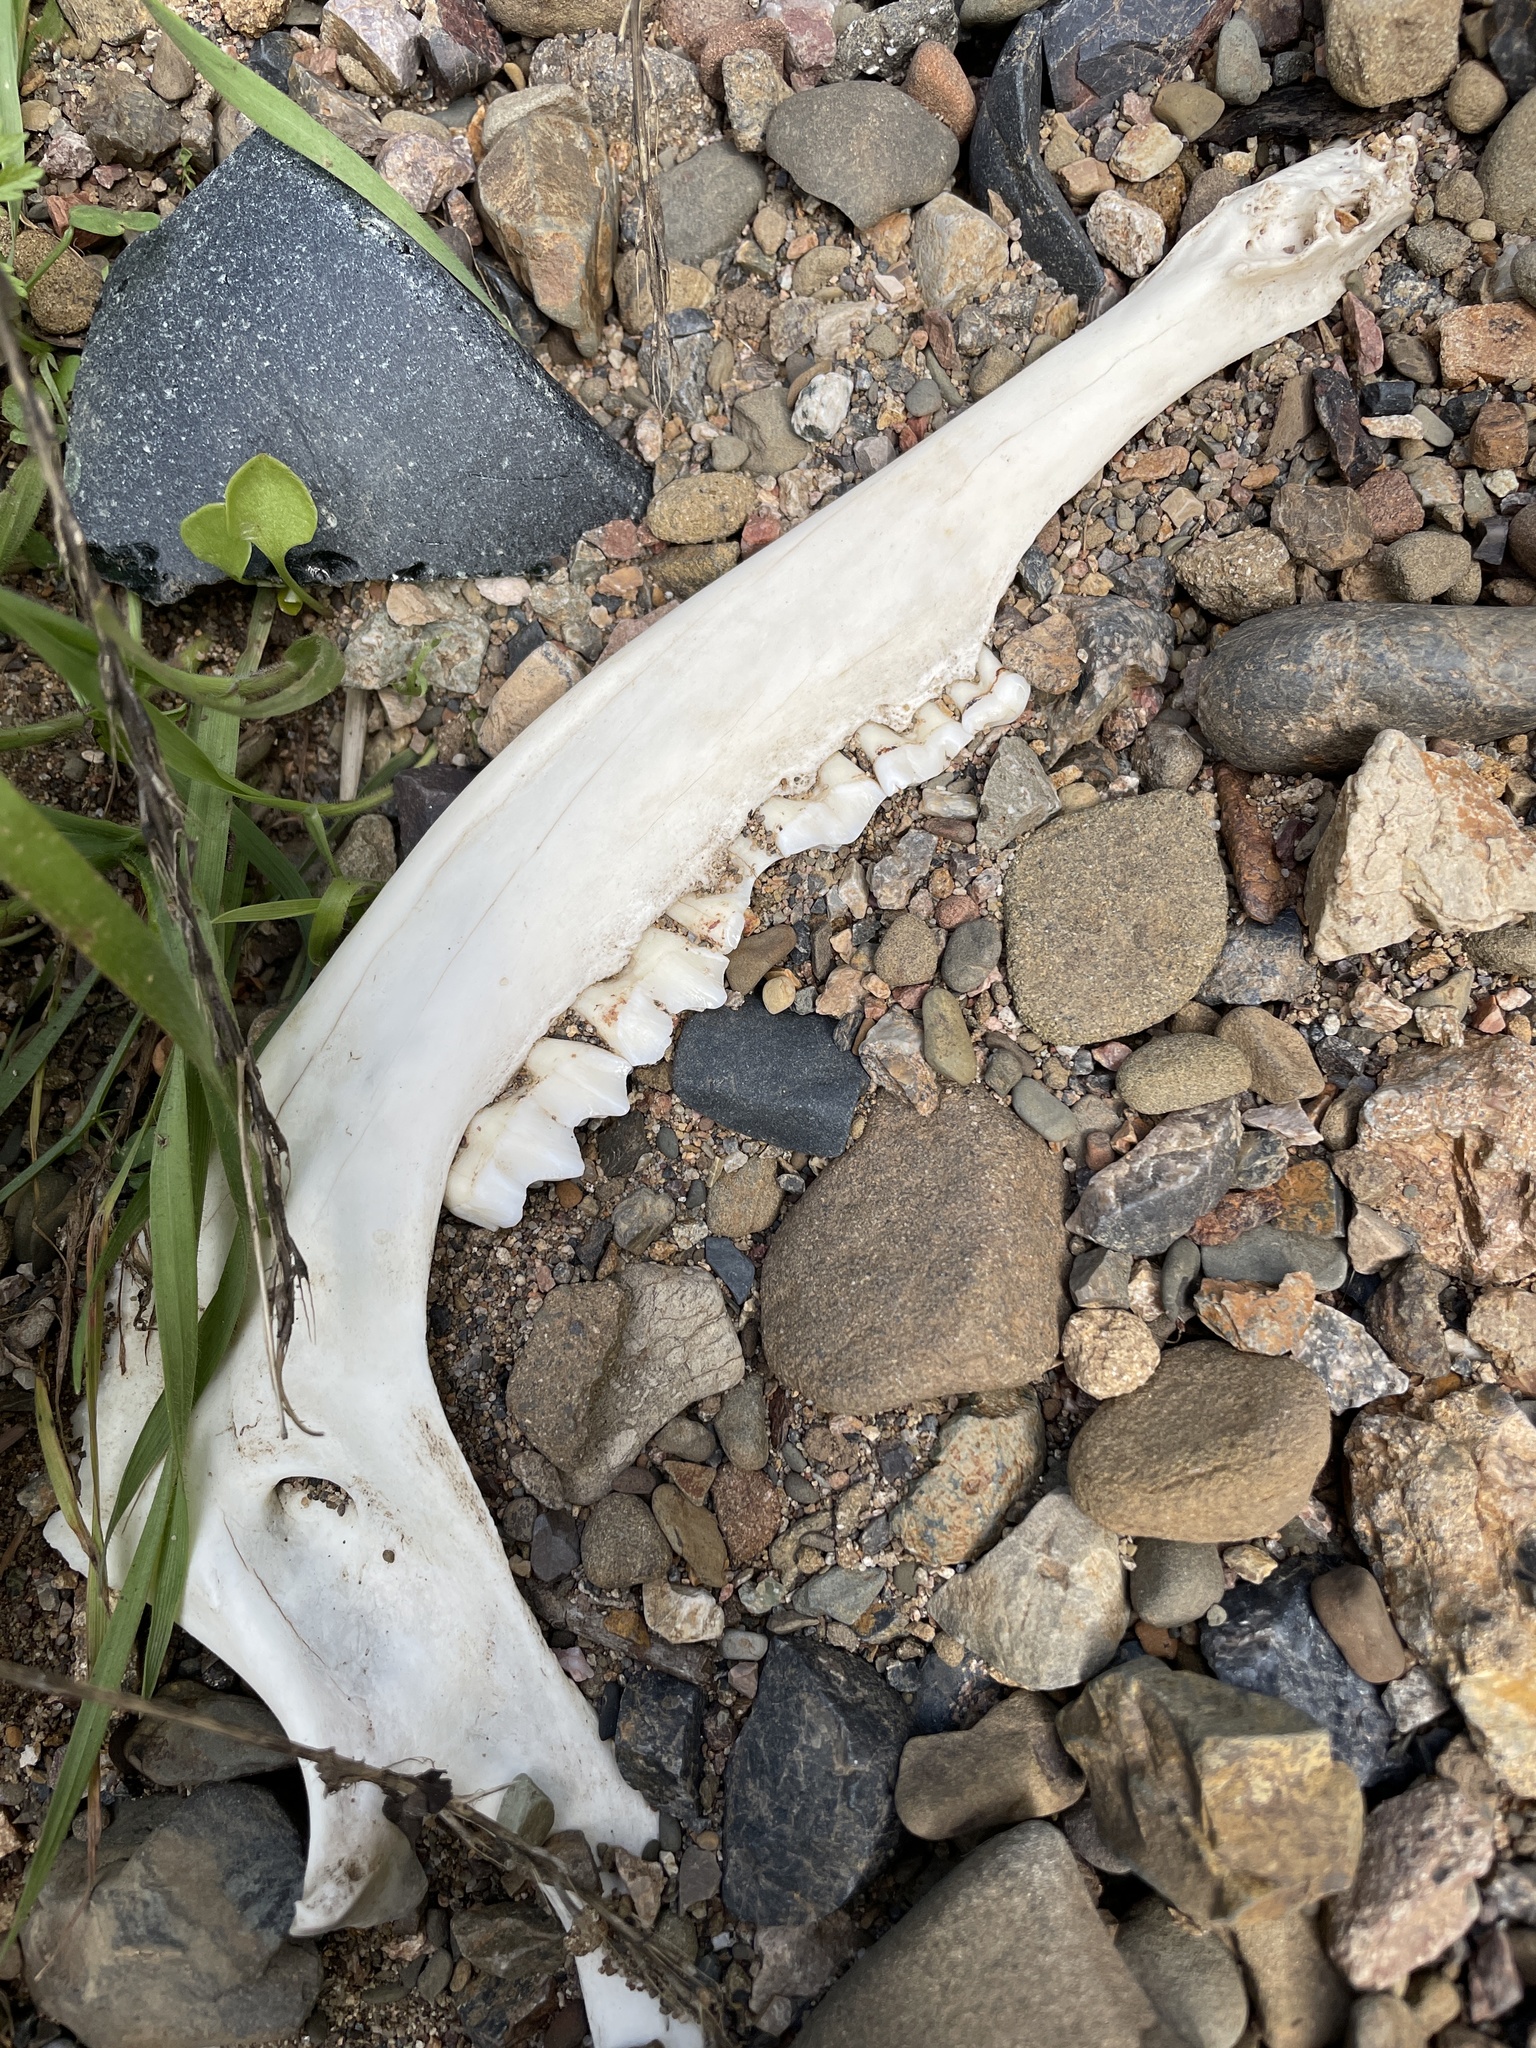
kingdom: Animalia
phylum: Chordata
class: Mammalia
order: Artiodactyla
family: Cervidae
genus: Odocoileus
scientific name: Odocoileus hemionus
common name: Mule deer
